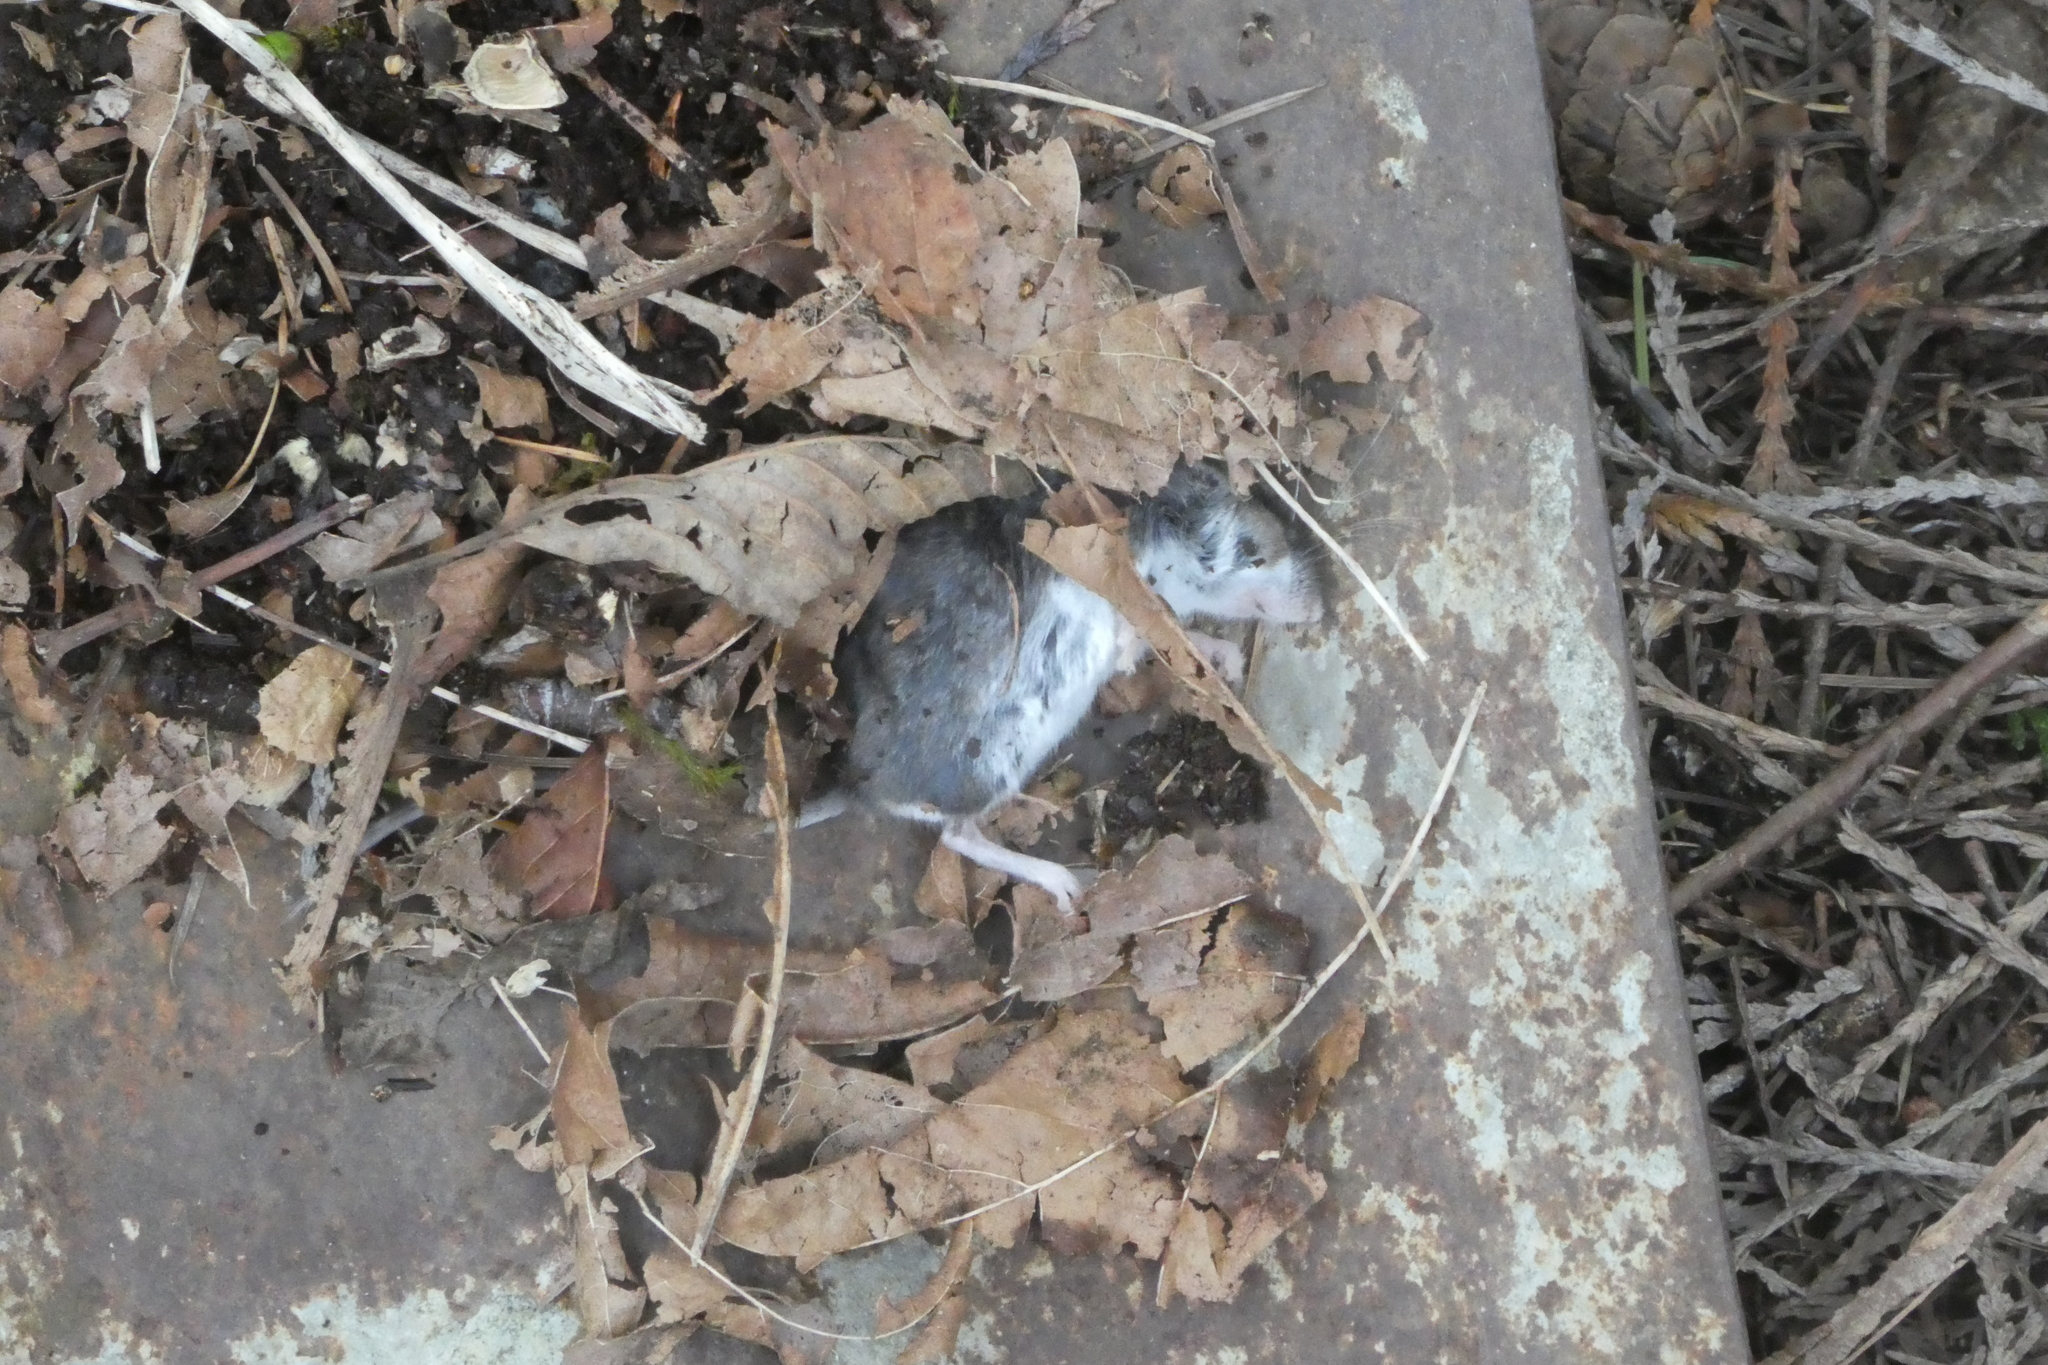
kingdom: Animalia
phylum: Chordata
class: Mammalia
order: Rodentia
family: Cricetidae
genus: Peromyscus
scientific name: Peromyscus maniculatus
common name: Deer mouse
